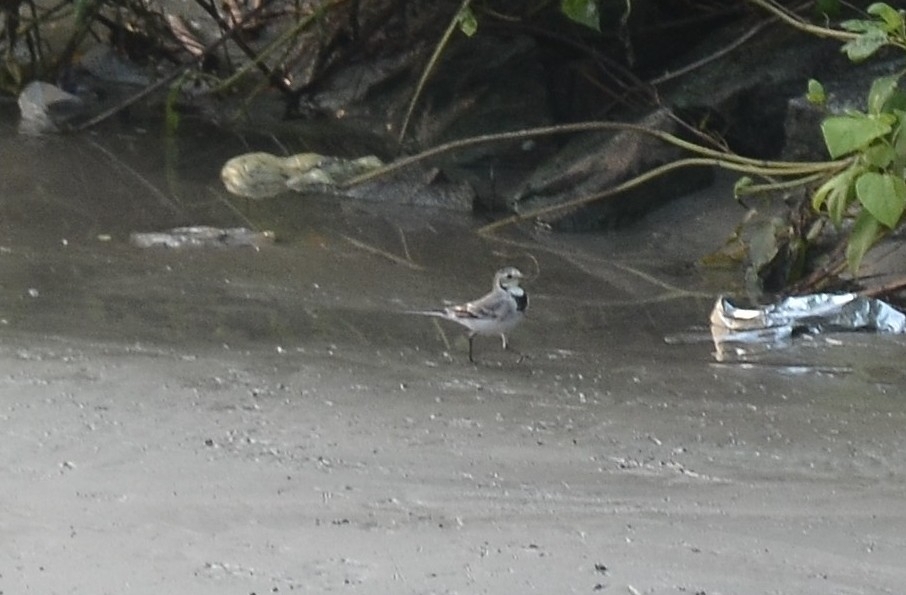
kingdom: Animalia
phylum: Chordata
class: Aves
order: Passeriformes
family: Motacillidae
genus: Motacilla
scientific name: Motacilla alba
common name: White wagtail
